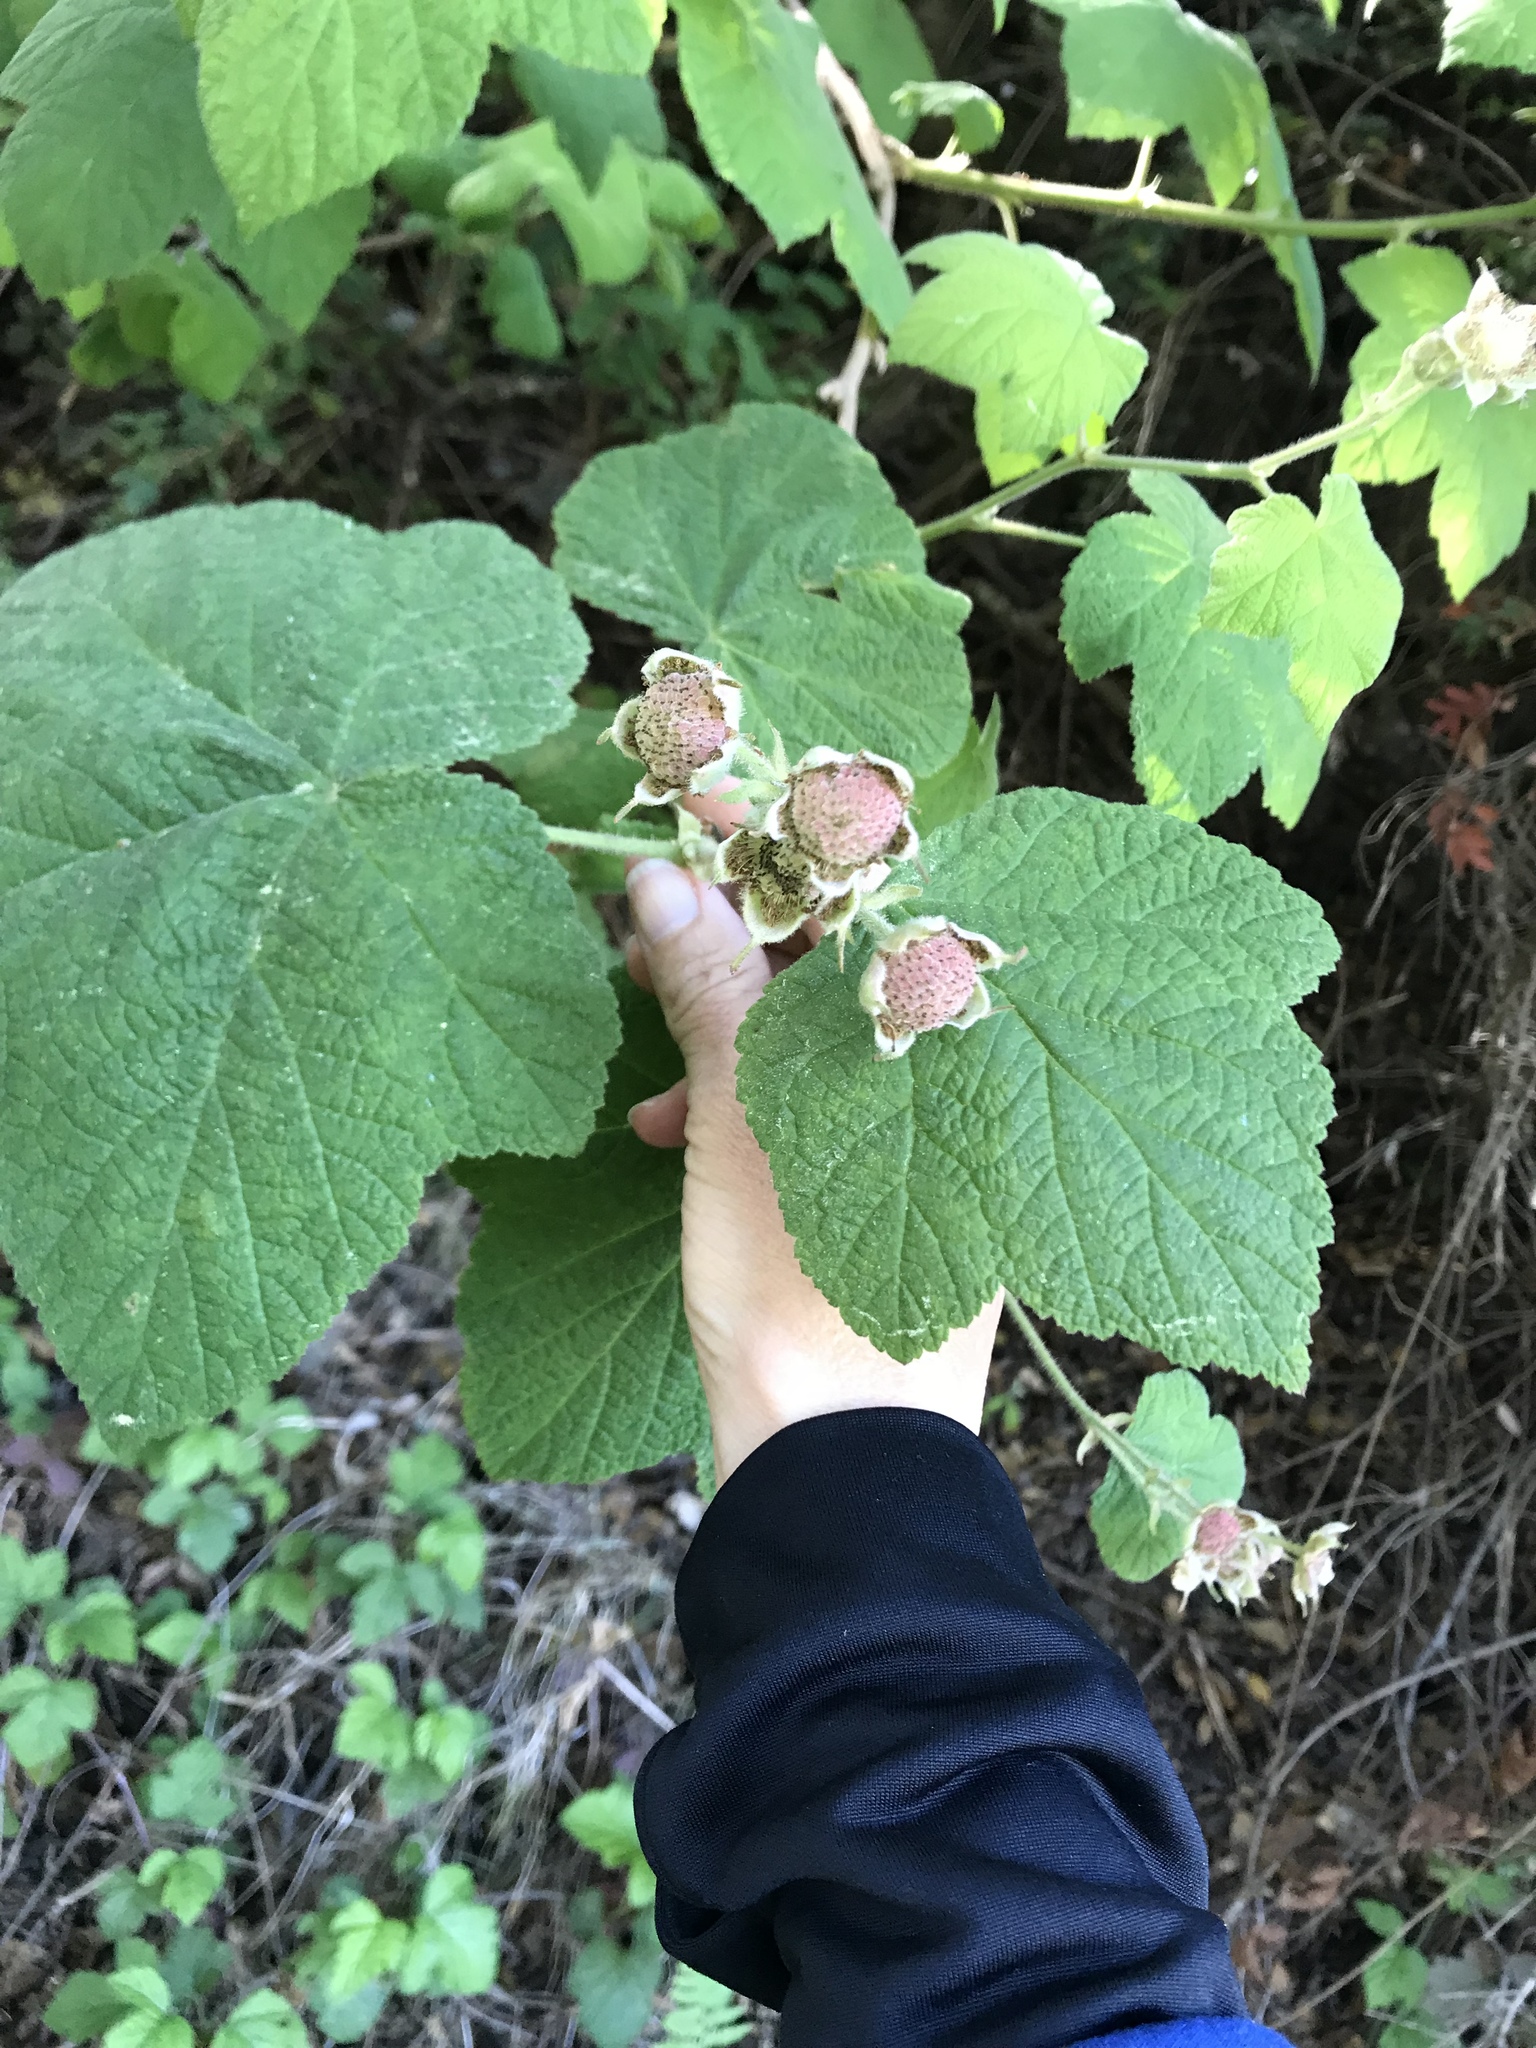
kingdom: Plantae
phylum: Tracheophyta
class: Magnoliopsida
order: Rosales
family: Rosaceae
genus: Rubus
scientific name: Rubus parviflorus
